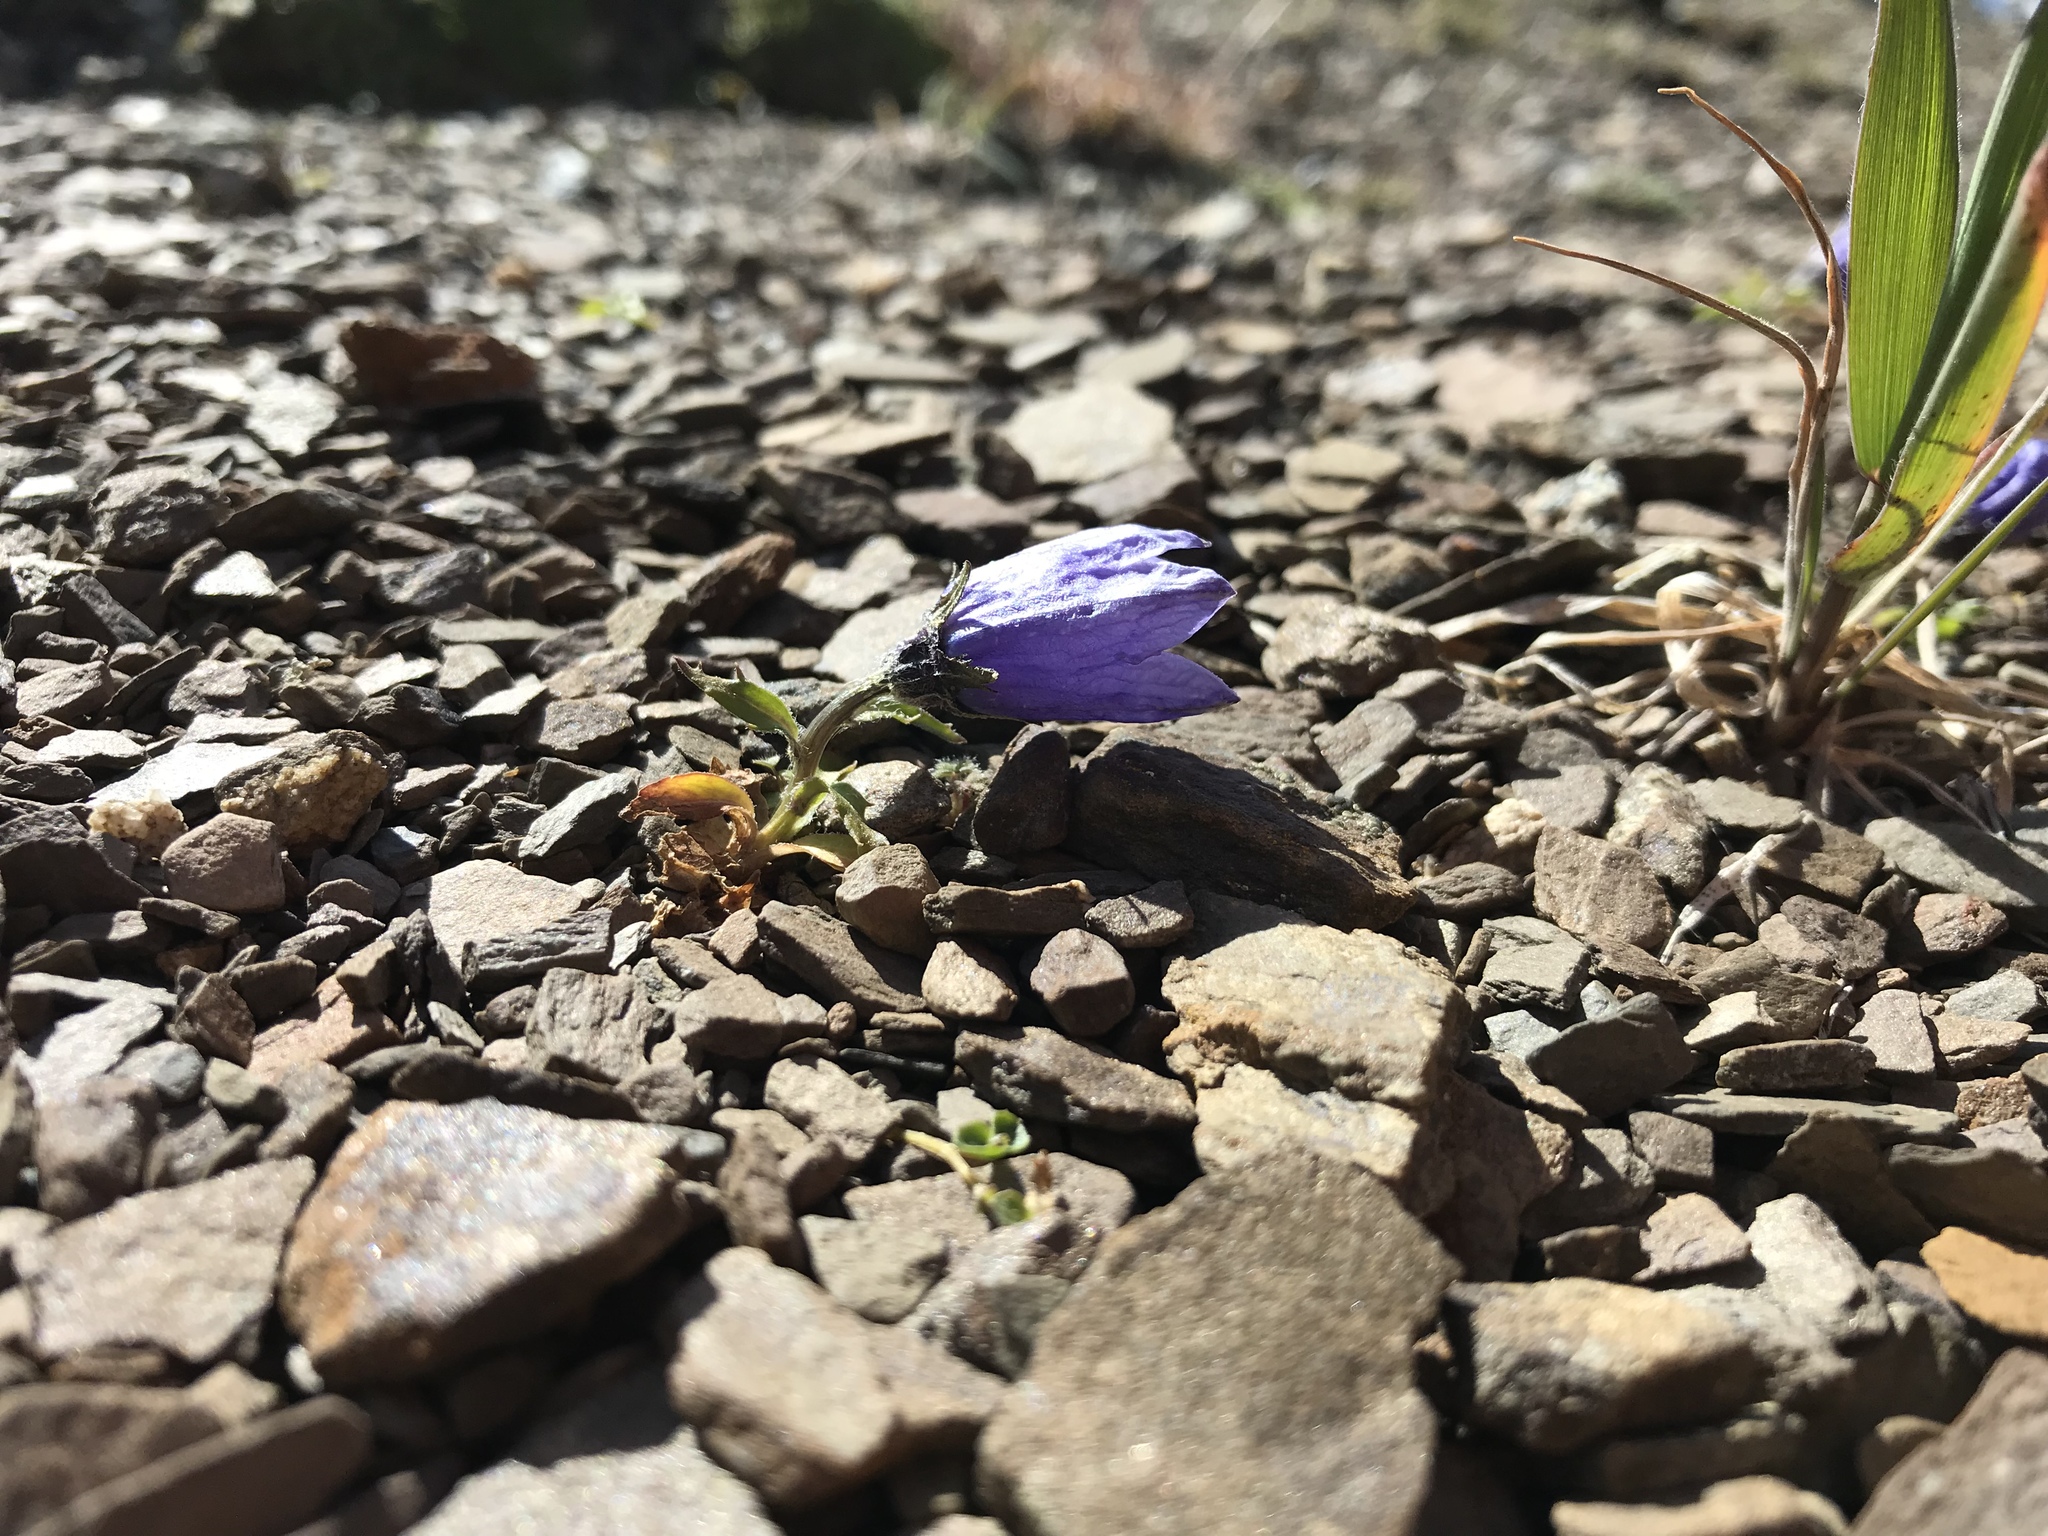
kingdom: Plantae
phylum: Tracheophyta
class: Magnoliopsida
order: Asterales
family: Campanulaceae
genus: Campanula
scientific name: Campanula lasiocarpa
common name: Mountain harebell
